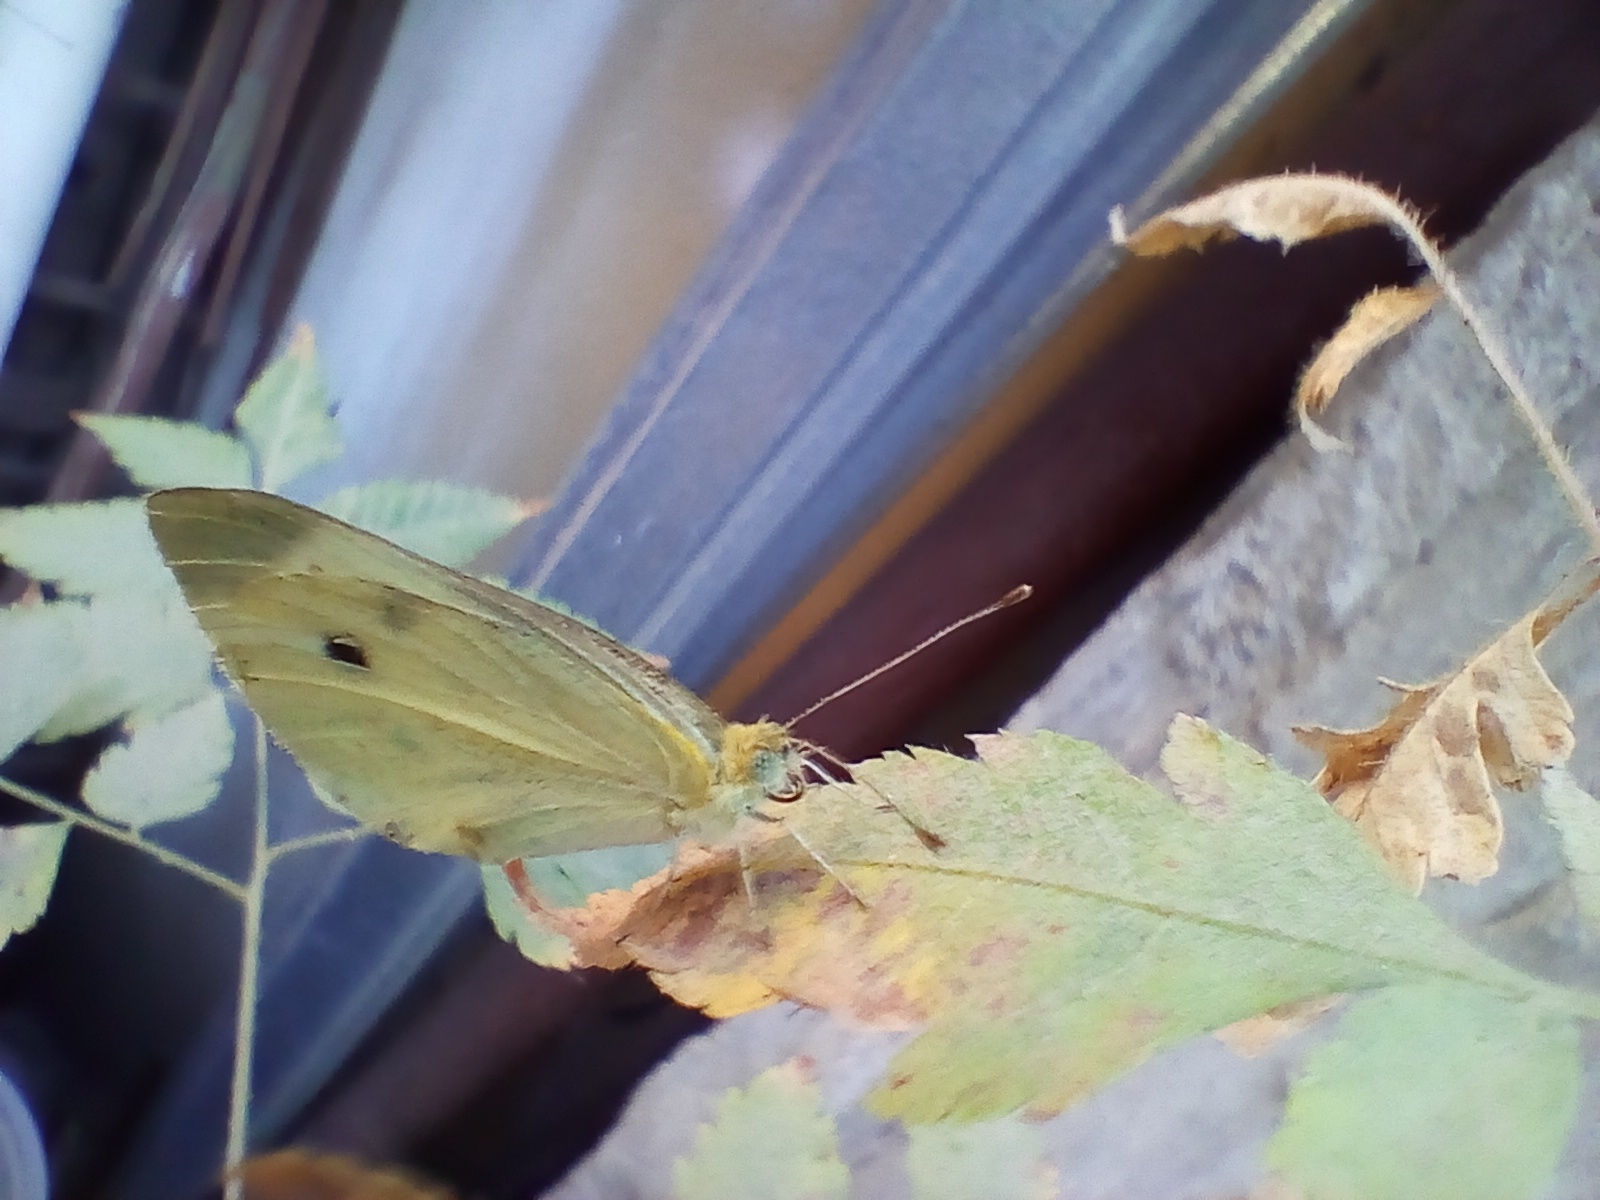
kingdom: Animalia
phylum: Arthropoda
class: Insecta
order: Lepidoptera
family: Pieridae
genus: Pieris
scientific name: Pieris rapae
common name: Small white
